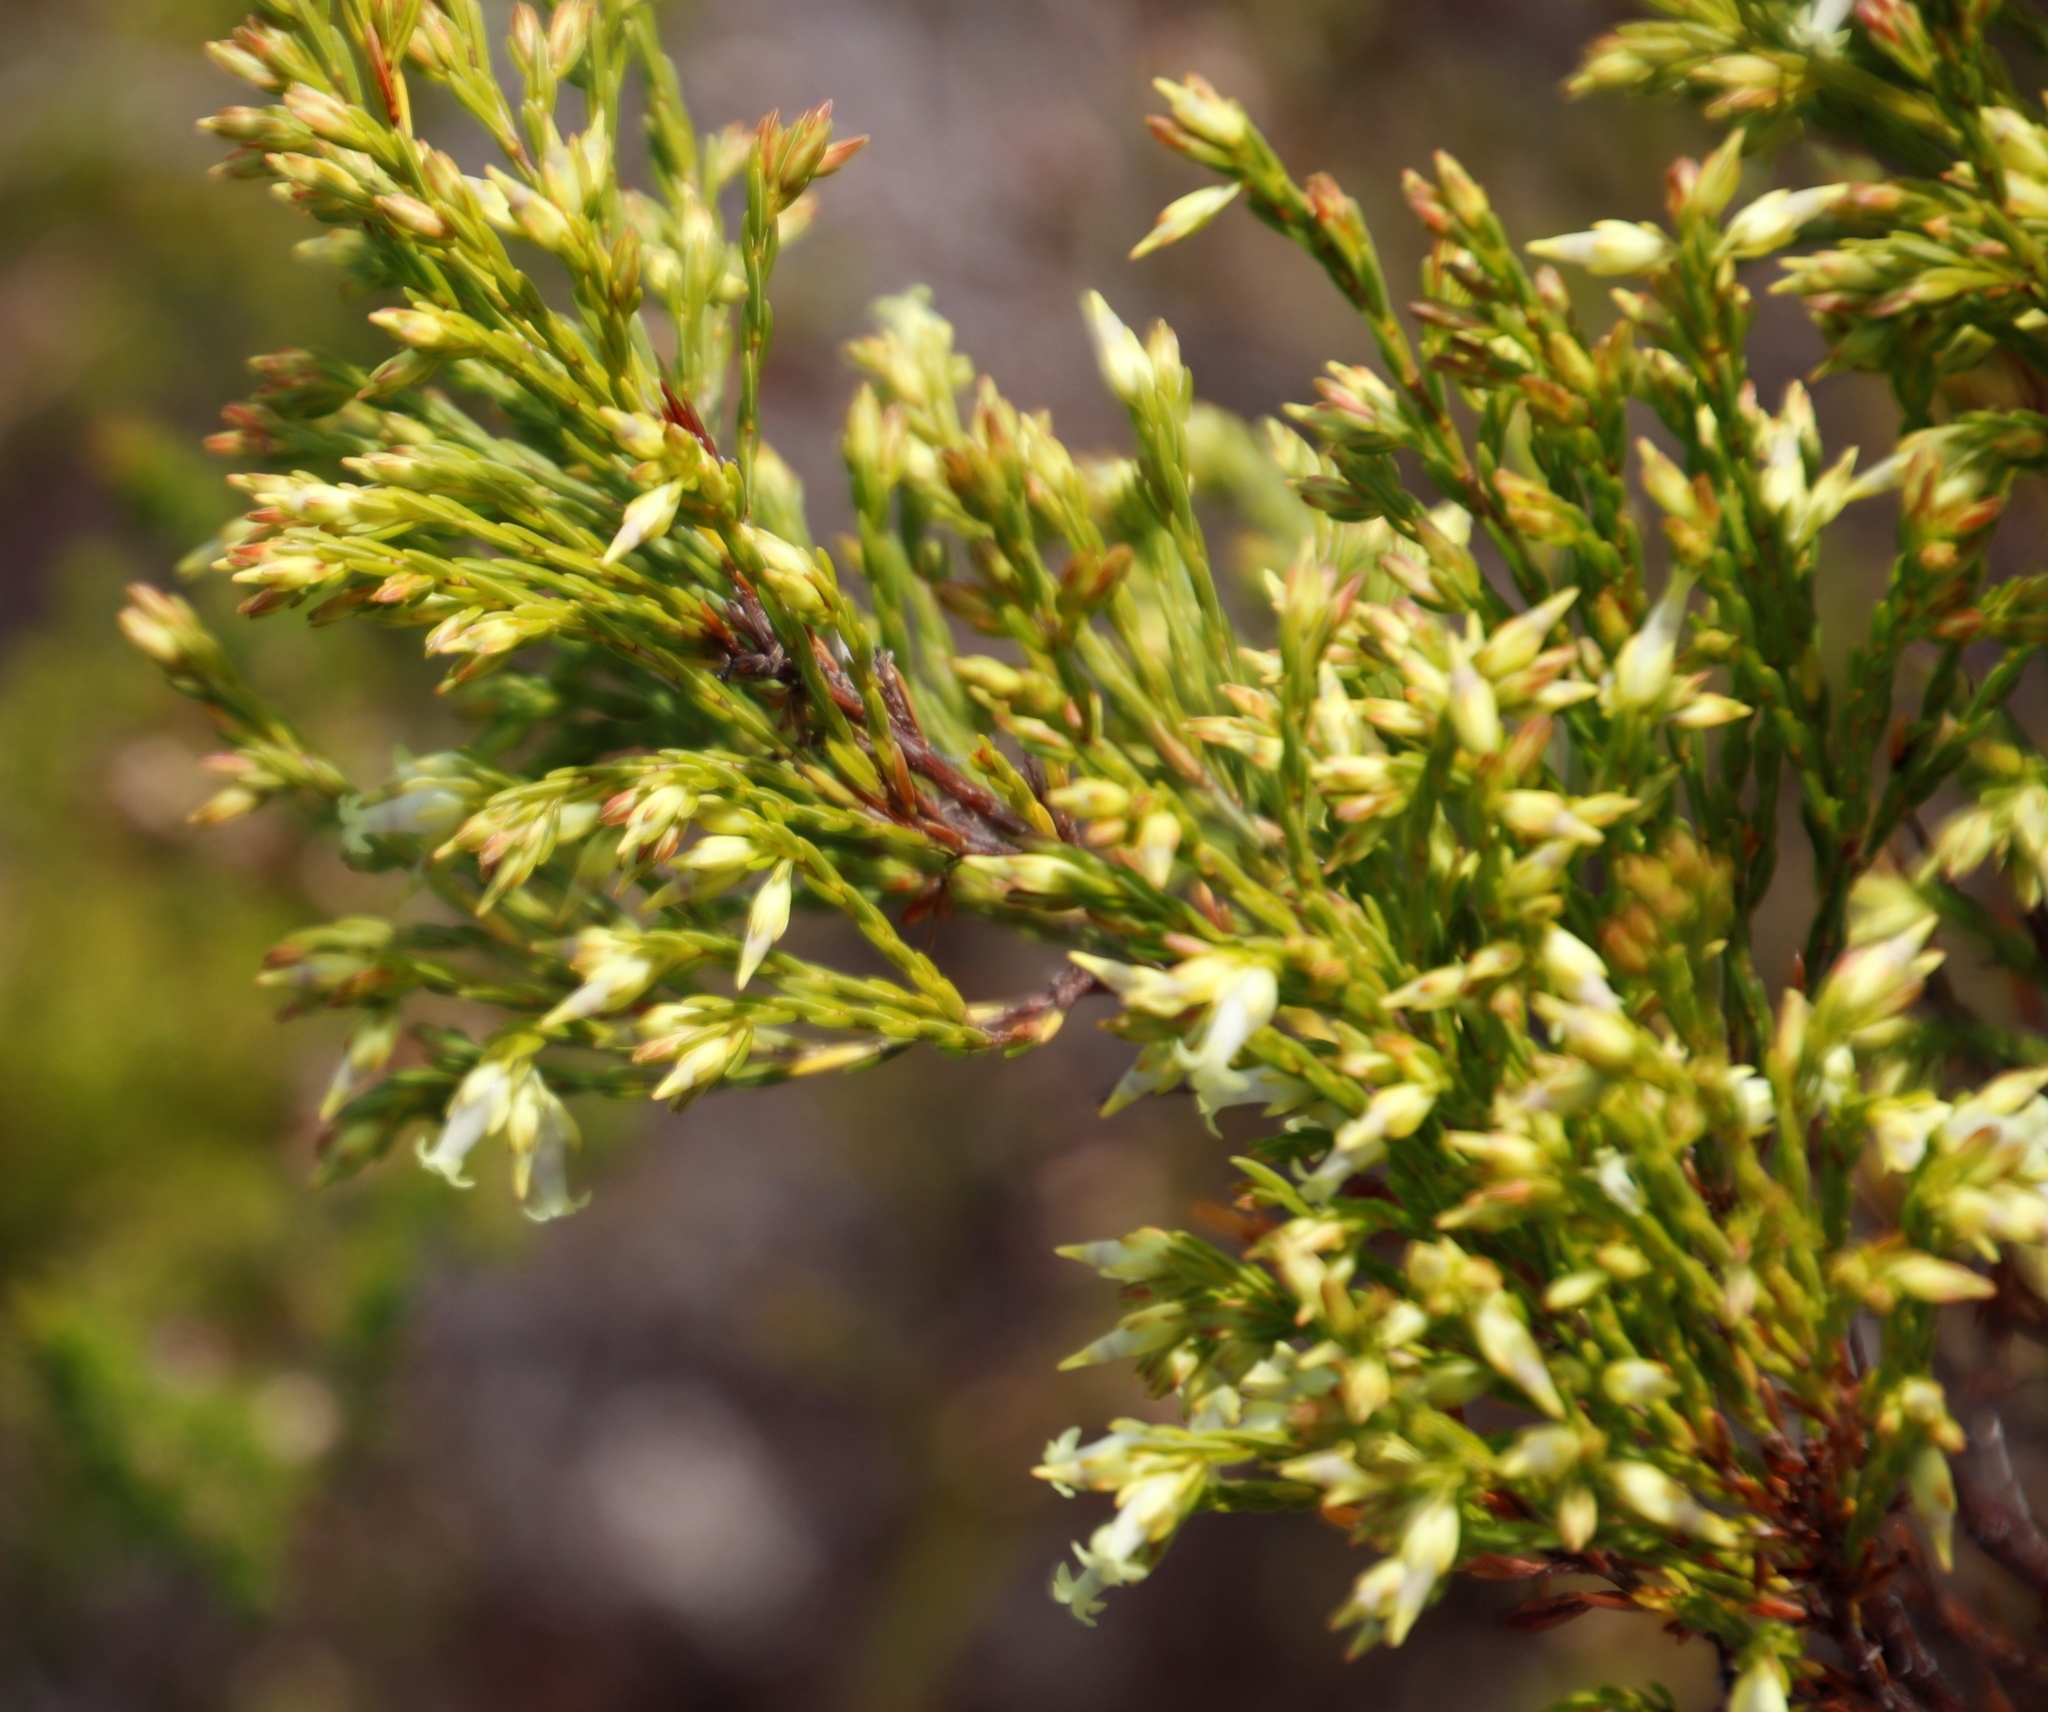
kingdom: Plantae
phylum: Tracheophyta
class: Magnoliopsida
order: Ericales
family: Ericaceae
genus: Erica
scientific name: Erica lutea
